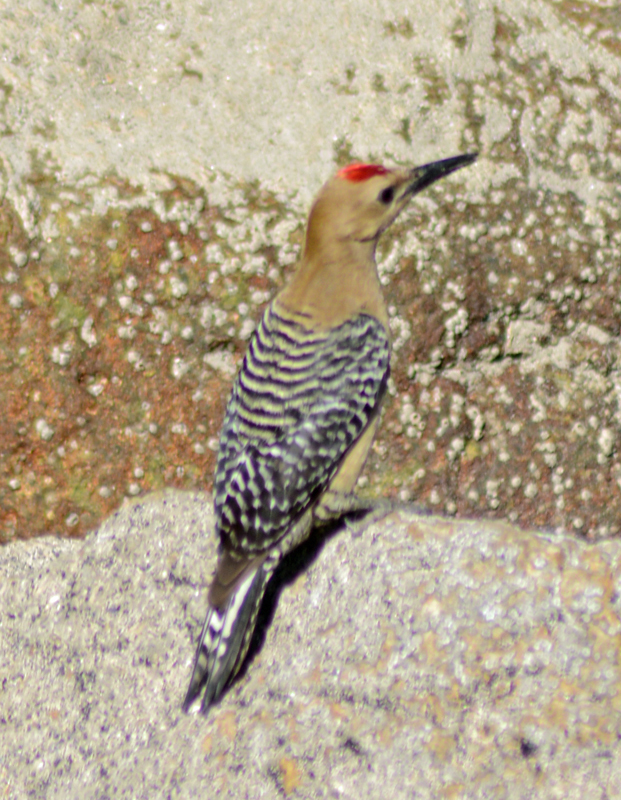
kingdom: Animalia
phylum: Chordata
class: Aves
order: Piciformes
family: Picidae
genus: Melanerpes
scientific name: Melanerpes uropygialis
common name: Gila woodpecker
